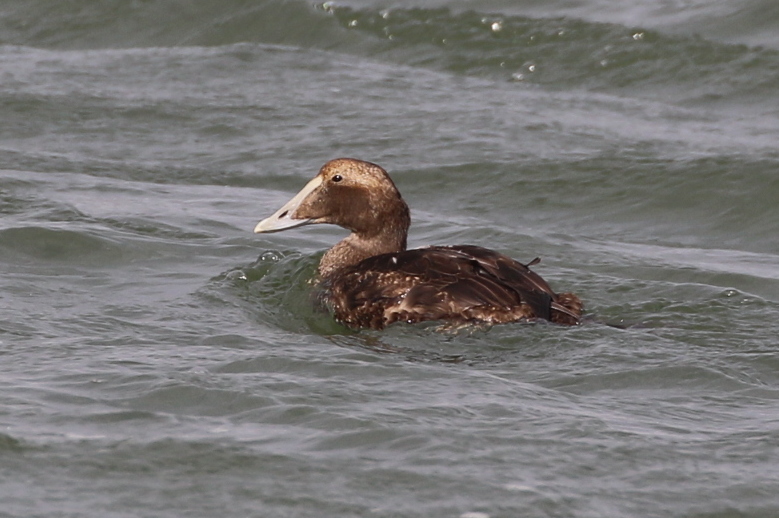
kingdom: Animalia
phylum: Chordata
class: Aves
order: Anseriformes
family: Anatidae
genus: Somateria
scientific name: Somateria mollissima
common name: Common eider
